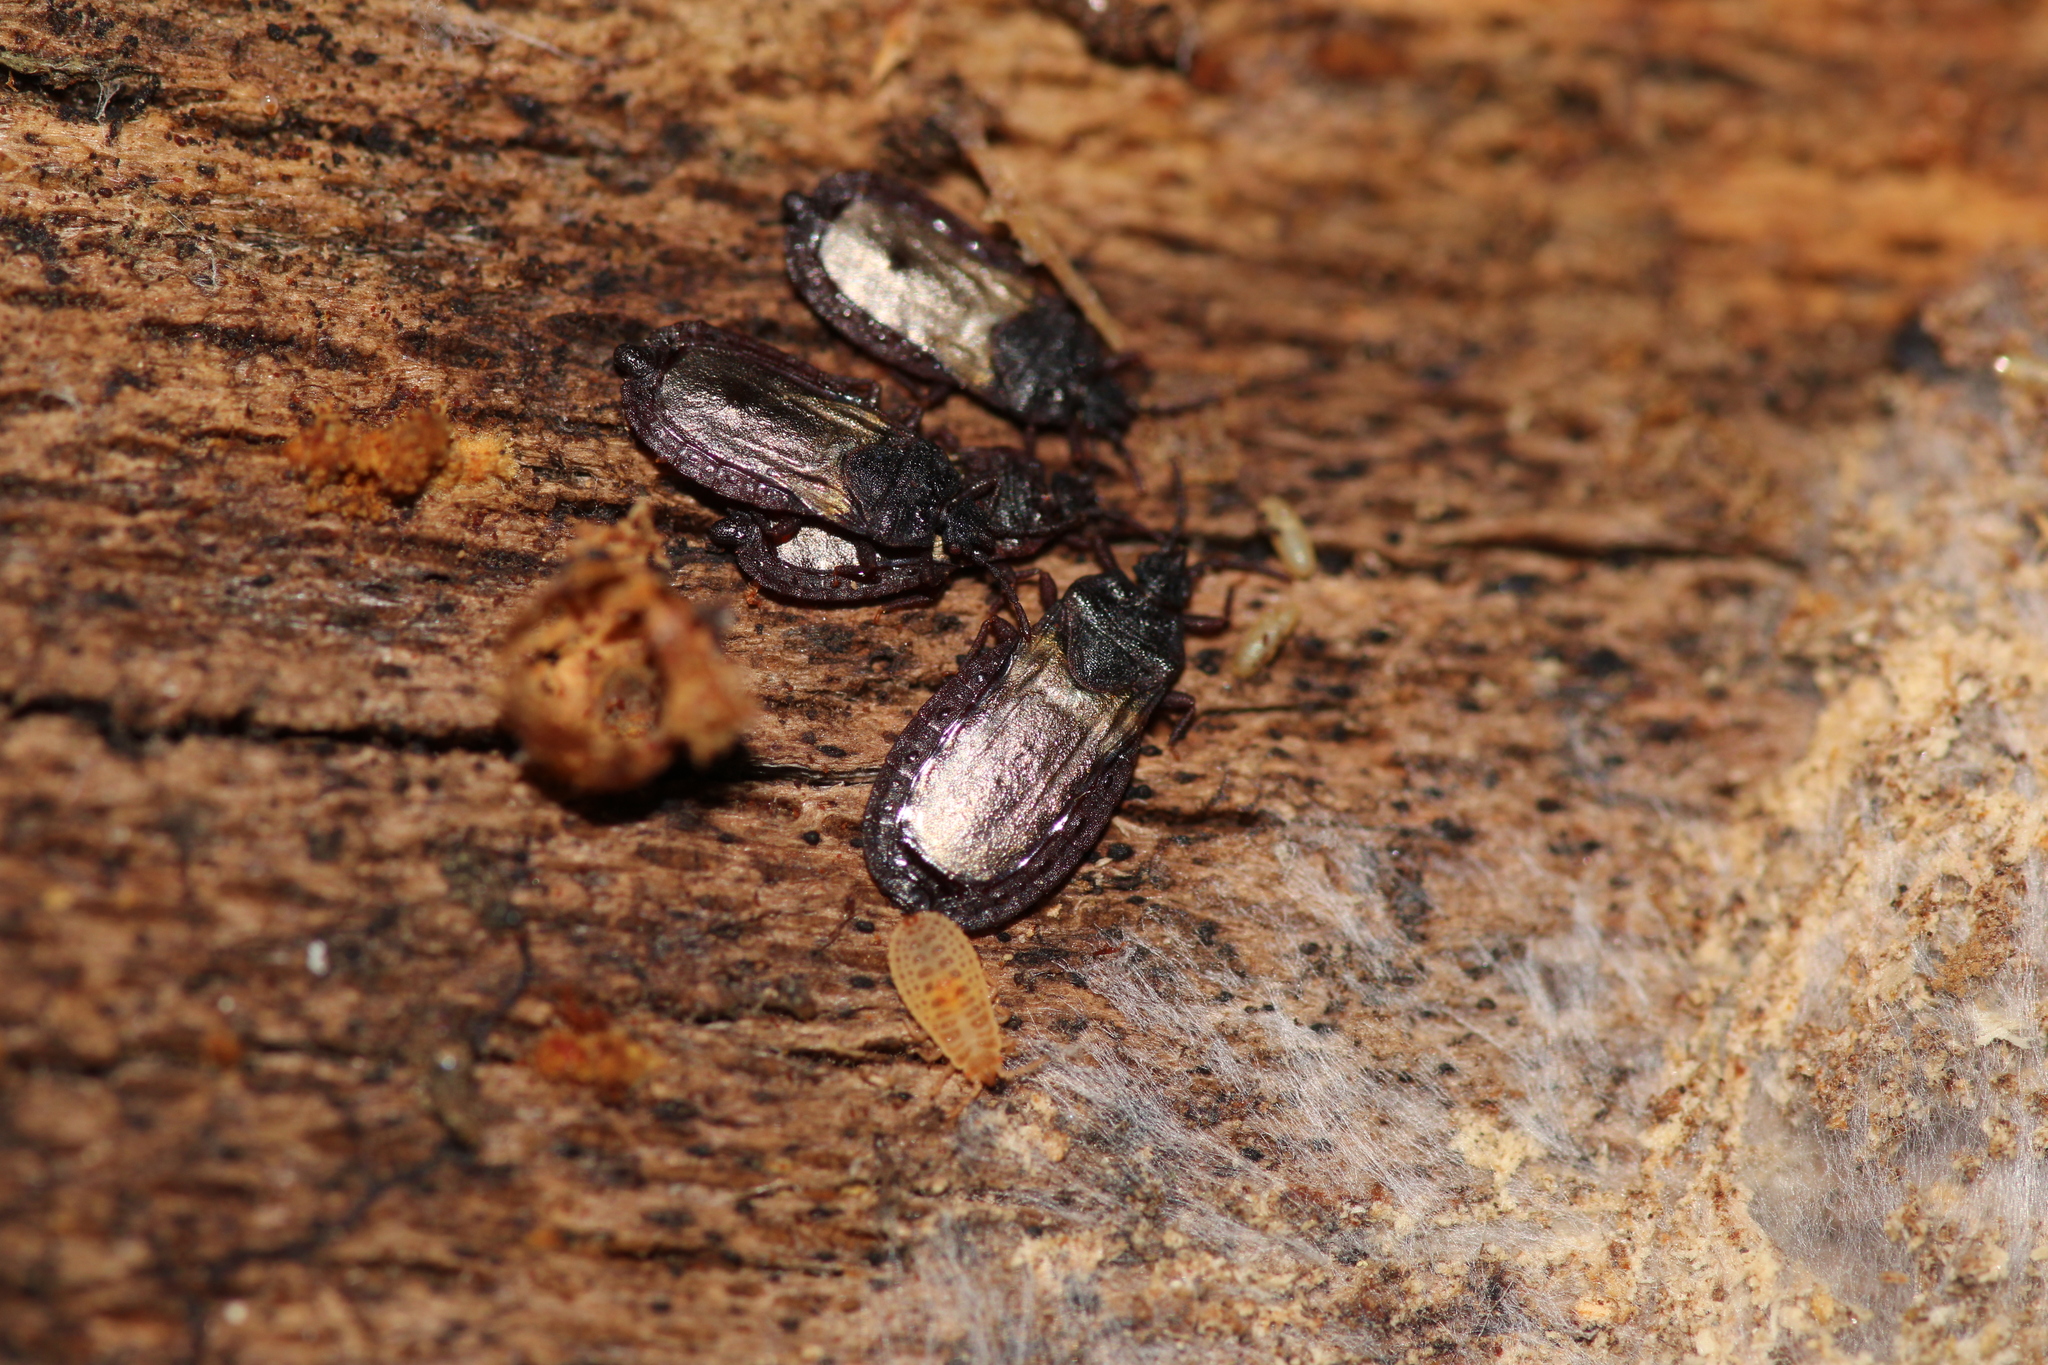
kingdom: Animalia
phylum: Arthropoda
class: Insecta
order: Hemiptera
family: Aradidae
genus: Aneurus
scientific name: Aneurus laevis
